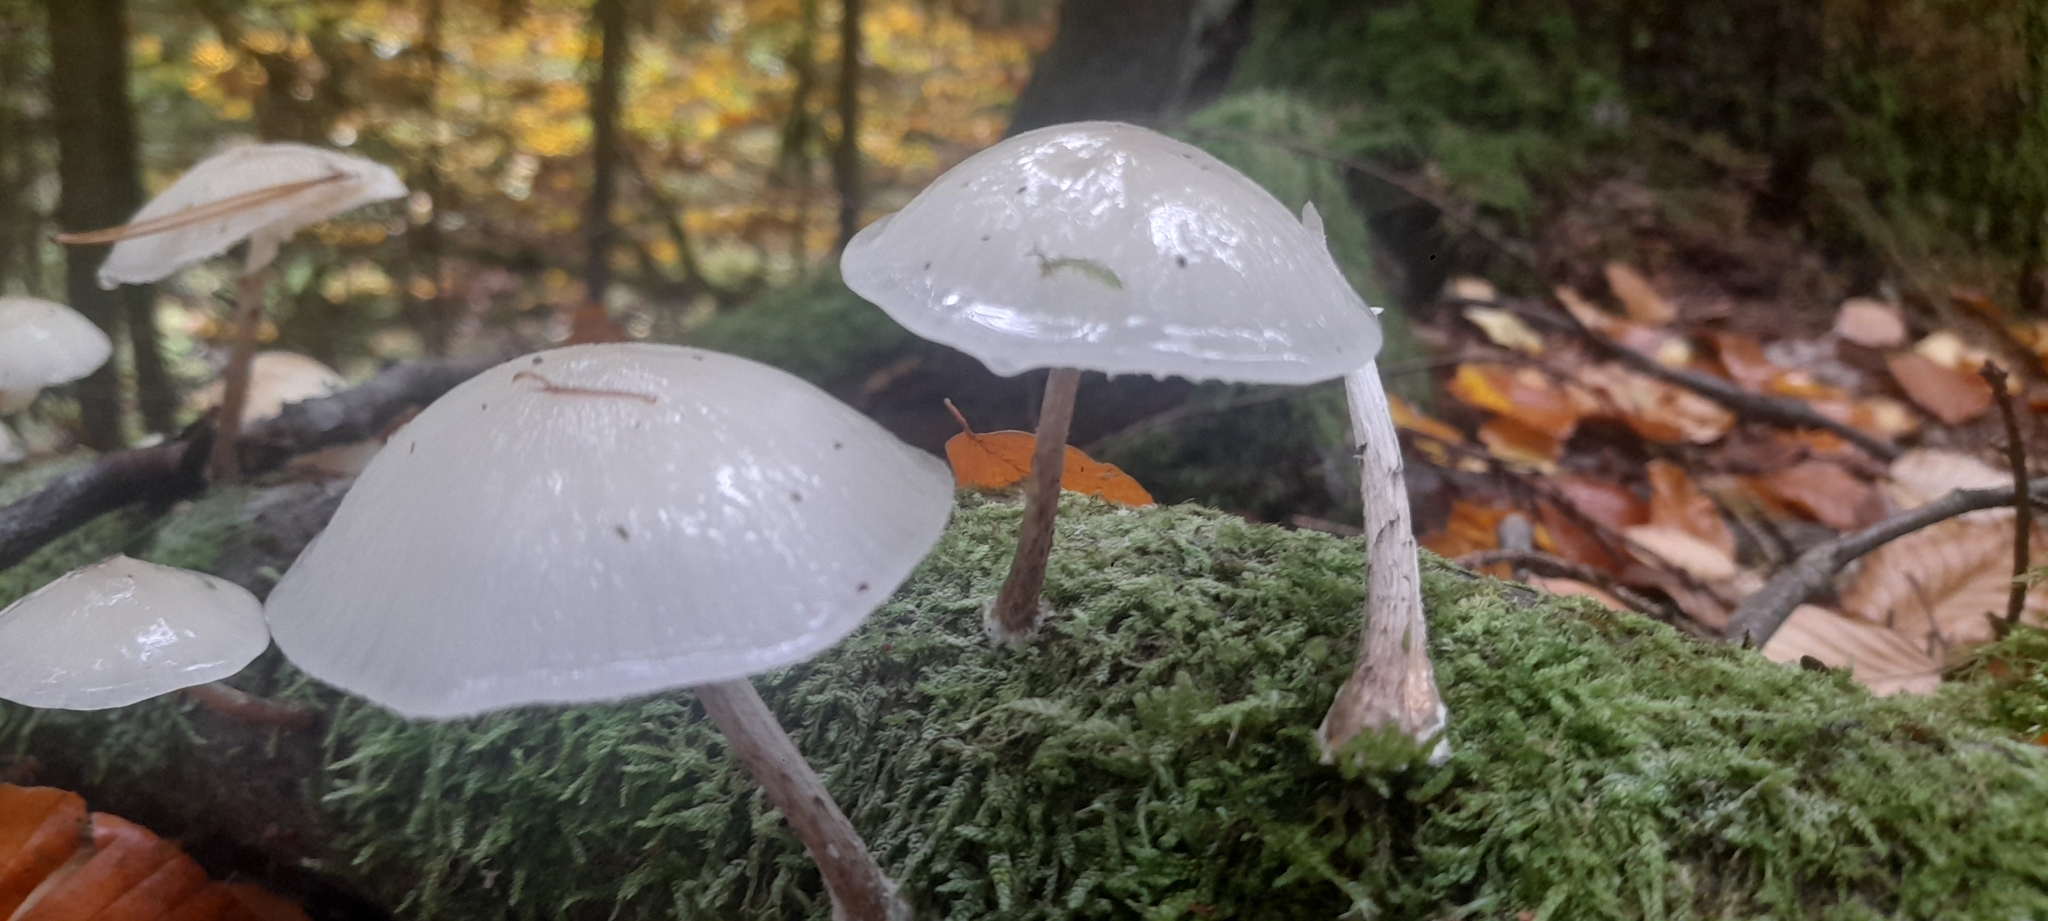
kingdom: Fungi
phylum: Basidiomycota
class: Agaricomycetes
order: Agaricales
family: Physalacriaceae
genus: Mucidula
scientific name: Mucidula mucida
